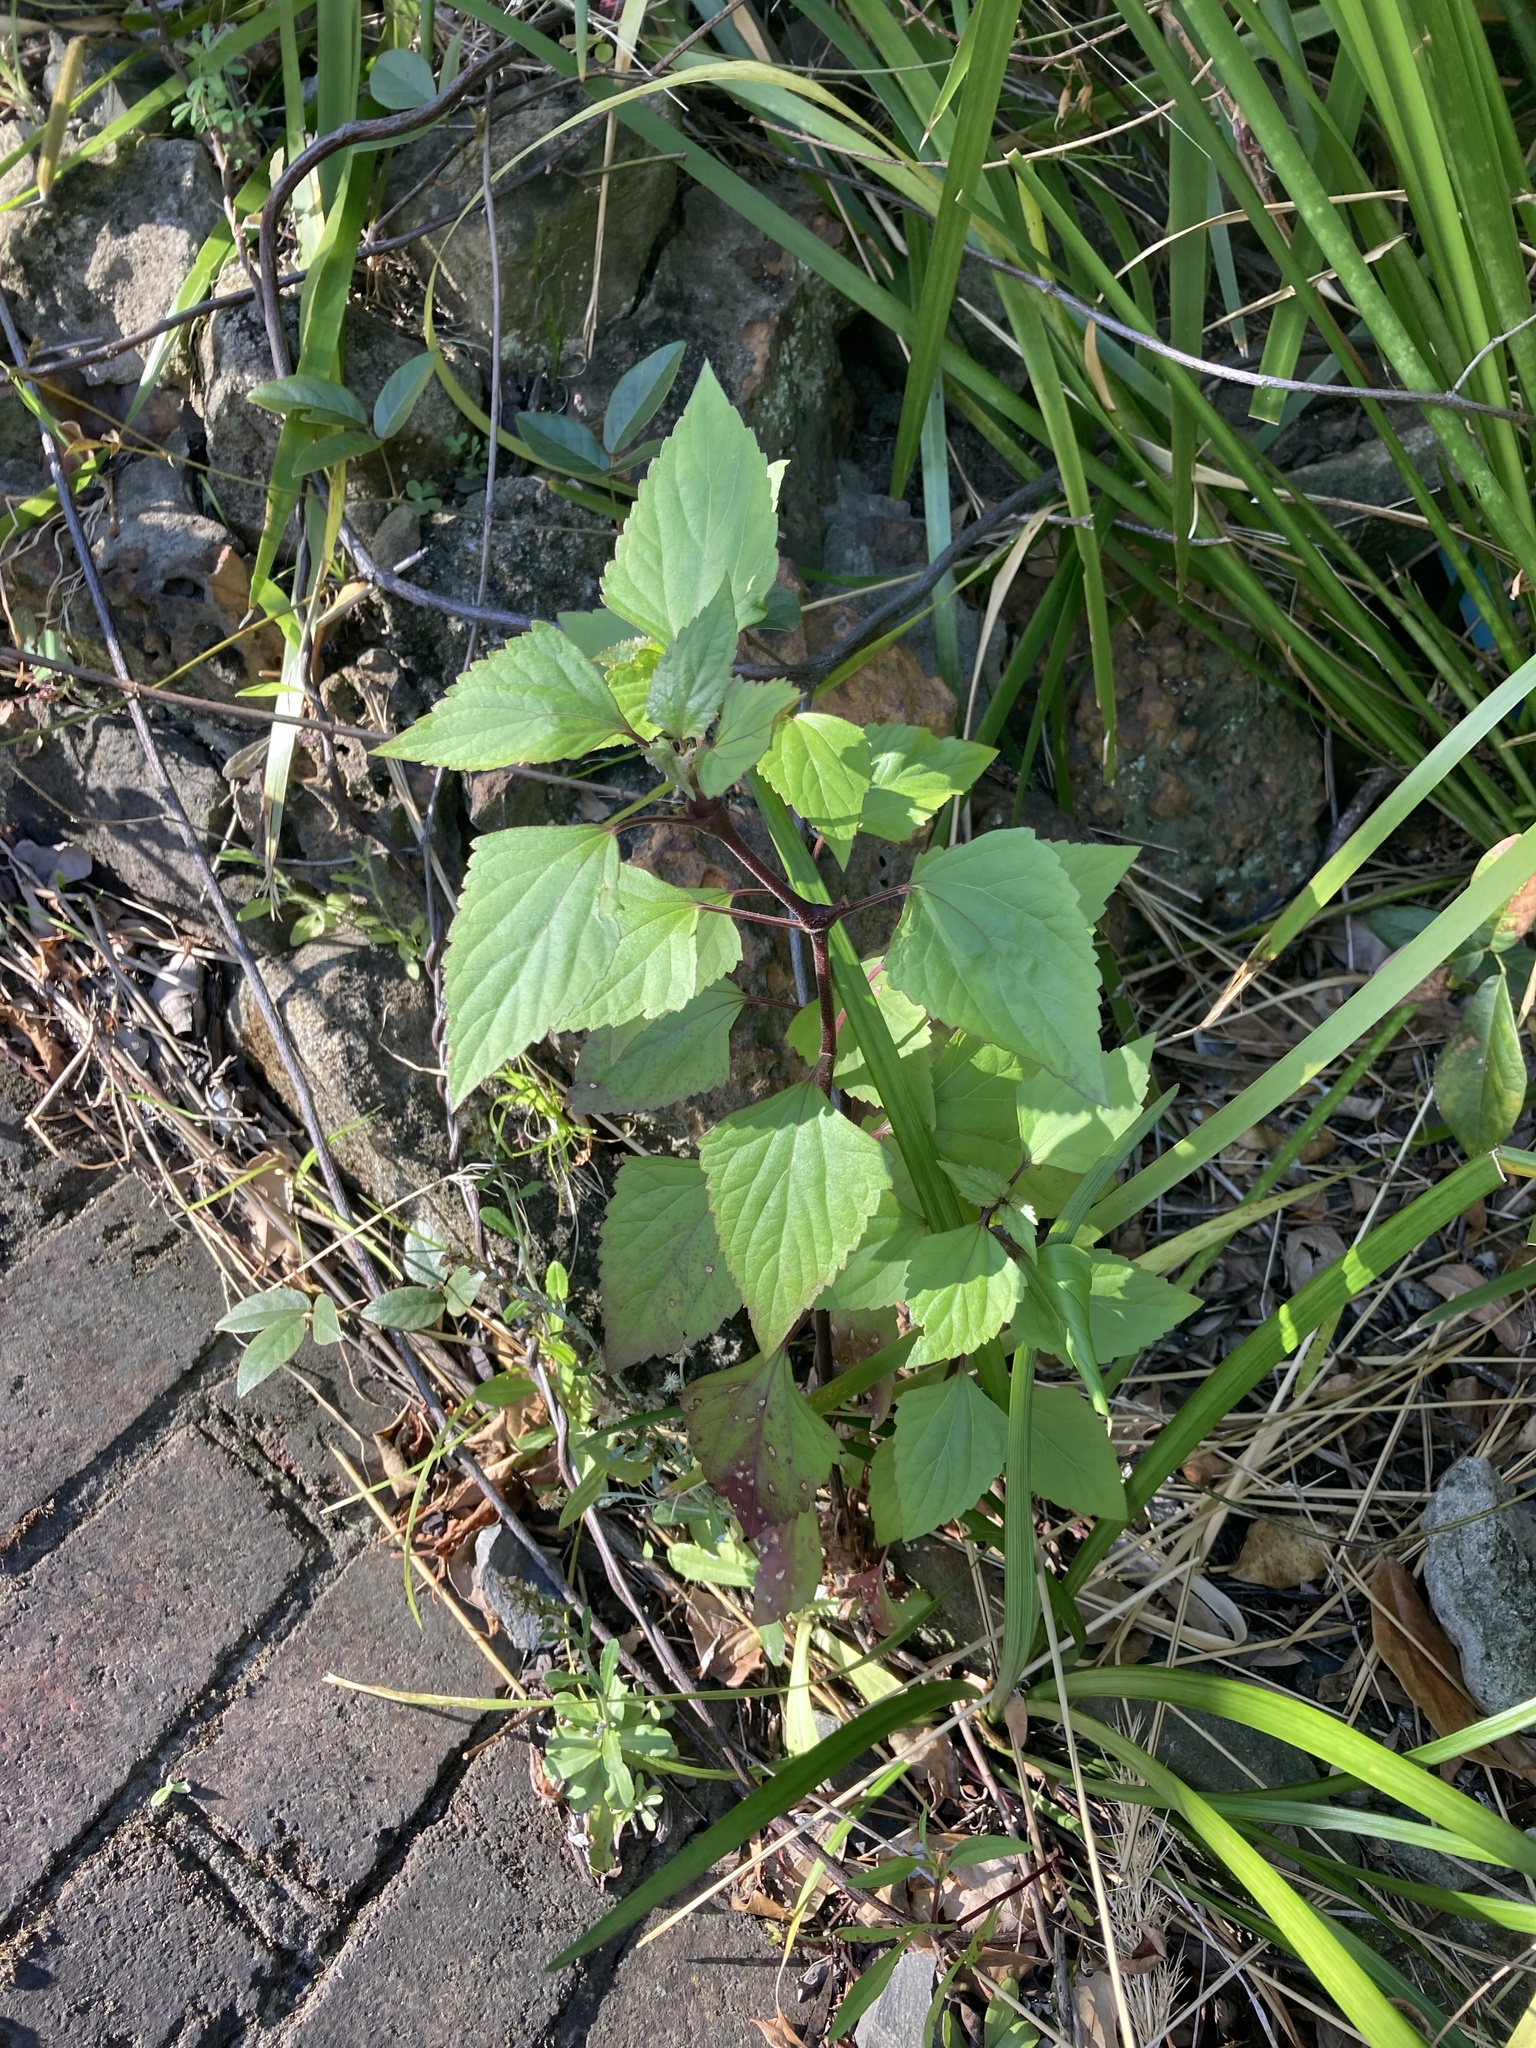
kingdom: Plantae
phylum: Tracheophyta
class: Magnoliopsida
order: Asterales
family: Asteraceae
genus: Ageratina
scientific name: Ageratina adenophora
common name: Sticky snakeroot
